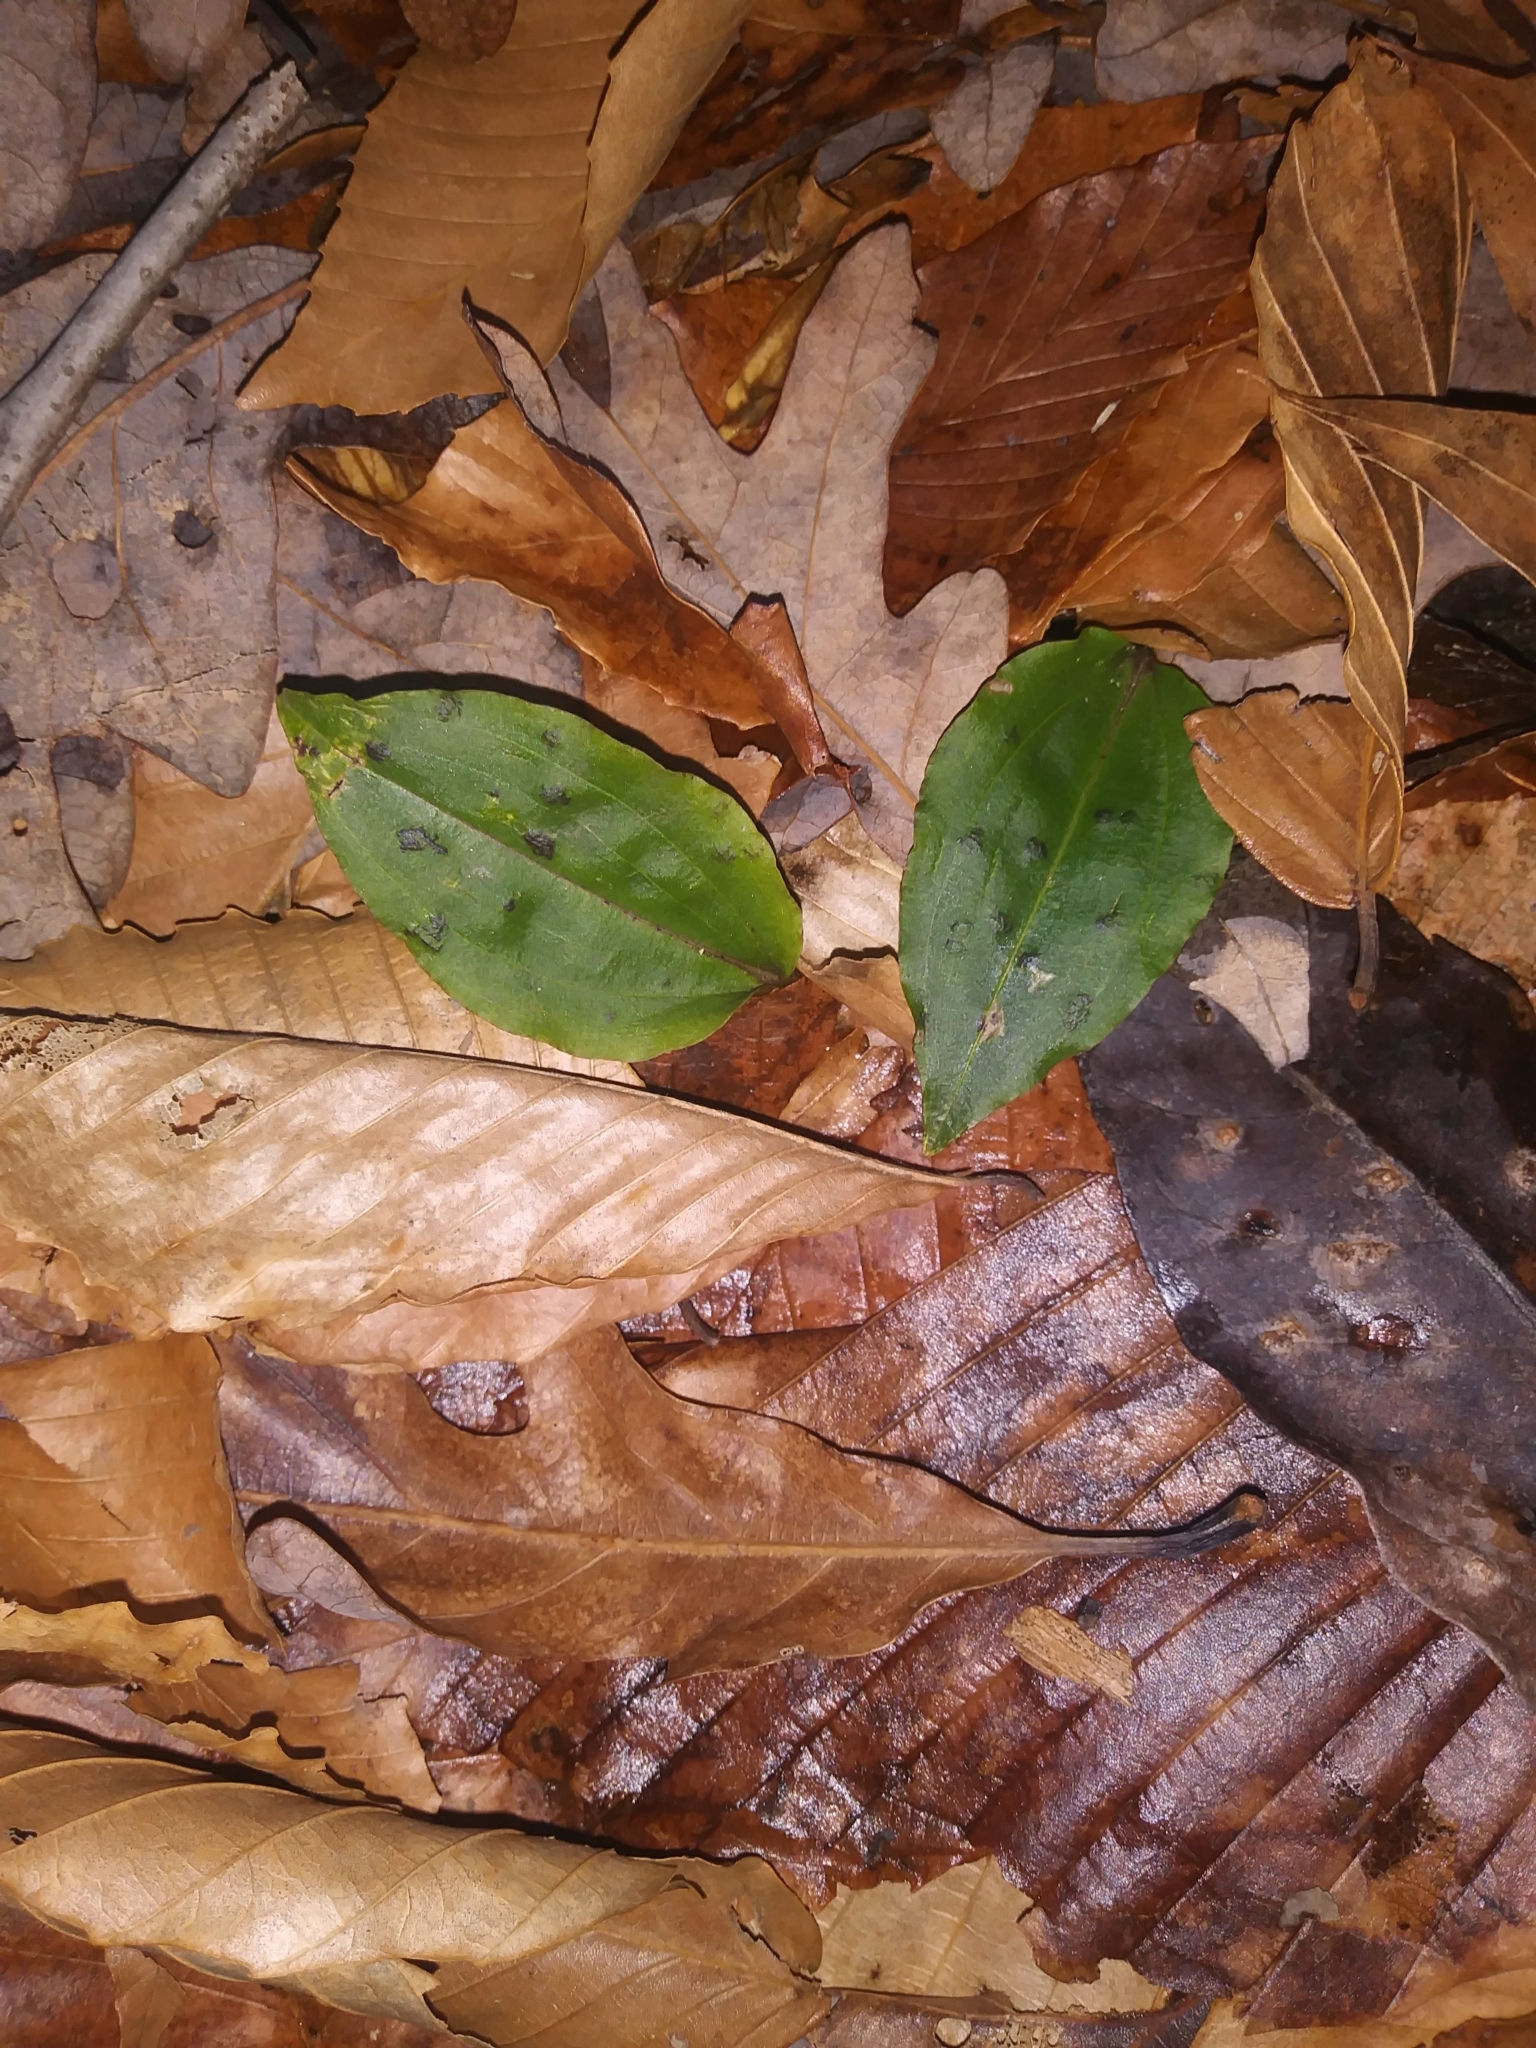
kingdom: Plantae
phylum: Tracheophyta
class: Liliopsida
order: Asparagales
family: Orchidaceae
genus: Tipularia
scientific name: Tipularia discolor
